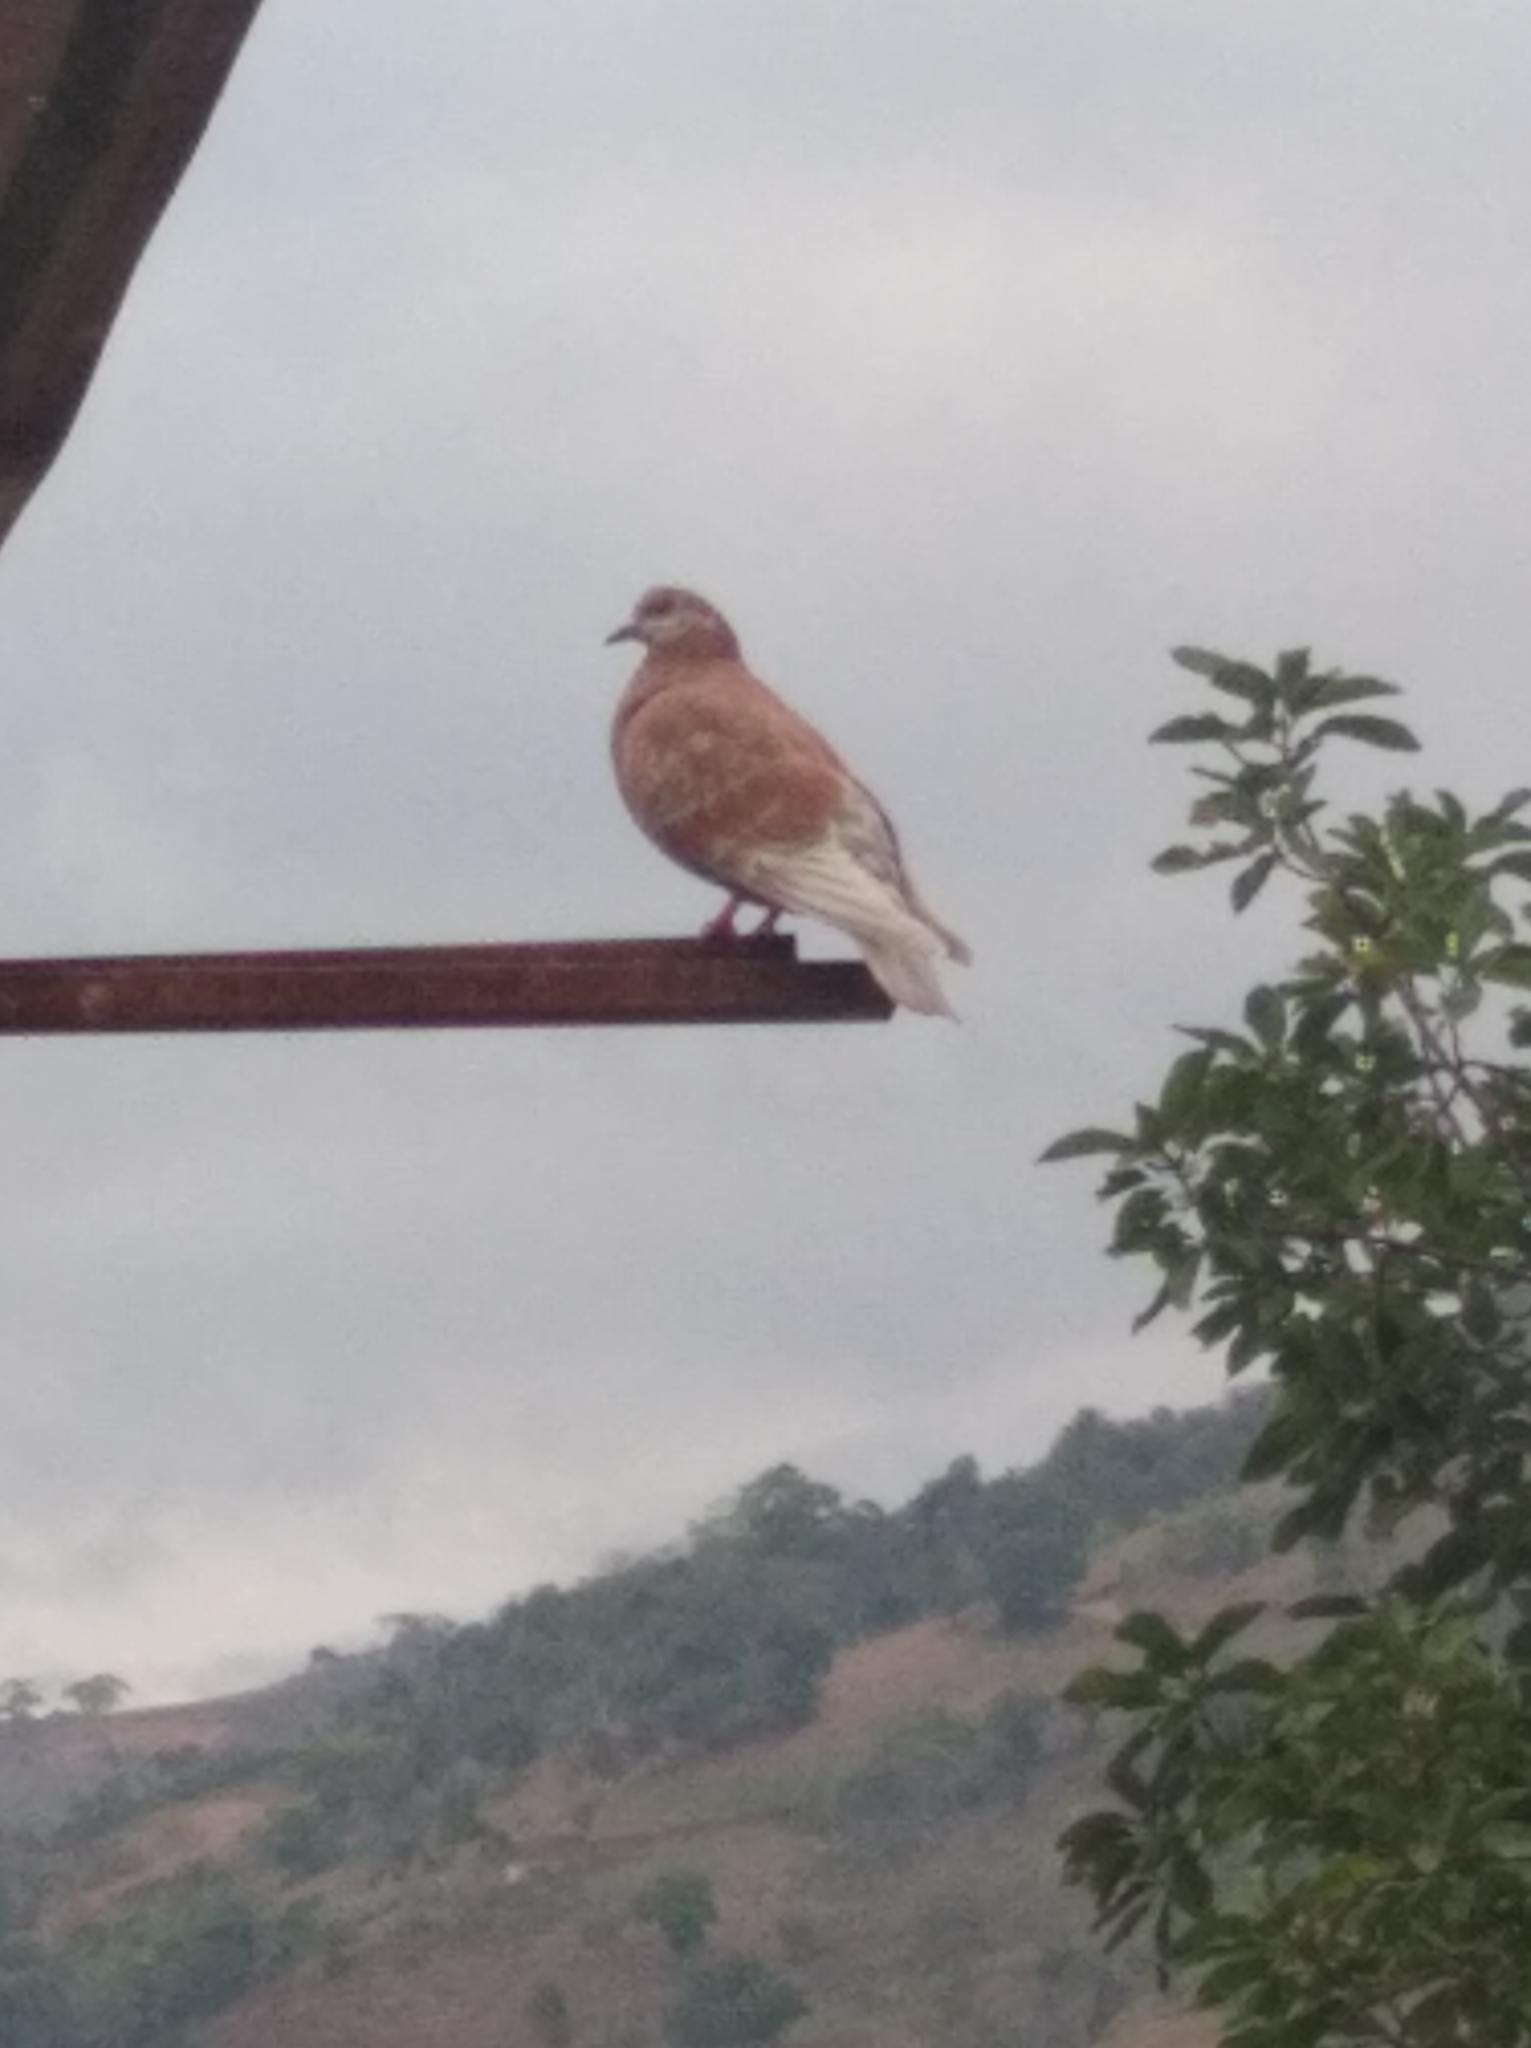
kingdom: Animalia
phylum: Chordata
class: Aves
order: Columbiformes
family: Columbidae
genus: Columba
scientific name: Columba livia
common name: Rock pigeon
